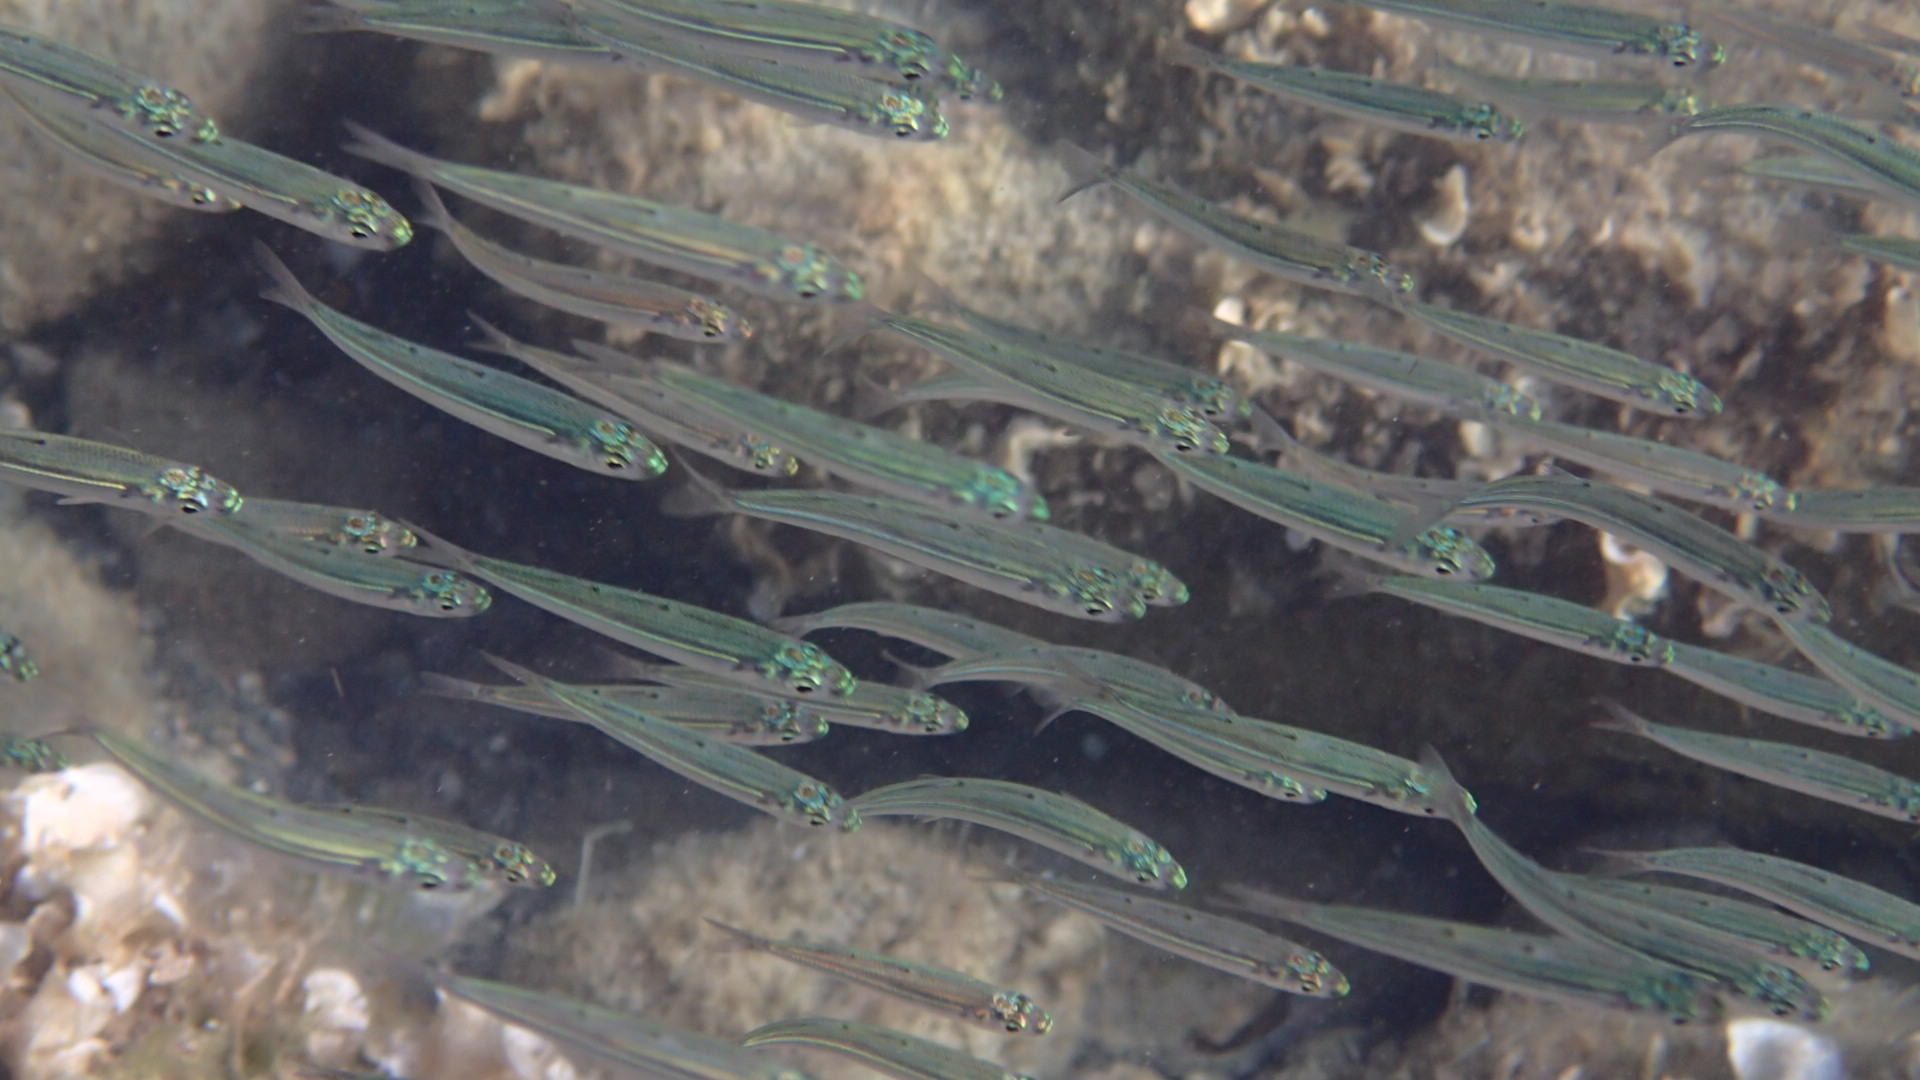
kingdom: Animalia
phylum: Chordata
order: Atheriniformes
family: Atherinidae
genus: Atherina
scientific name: Atherina hepsetus
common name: Mediterranean sand smelt
